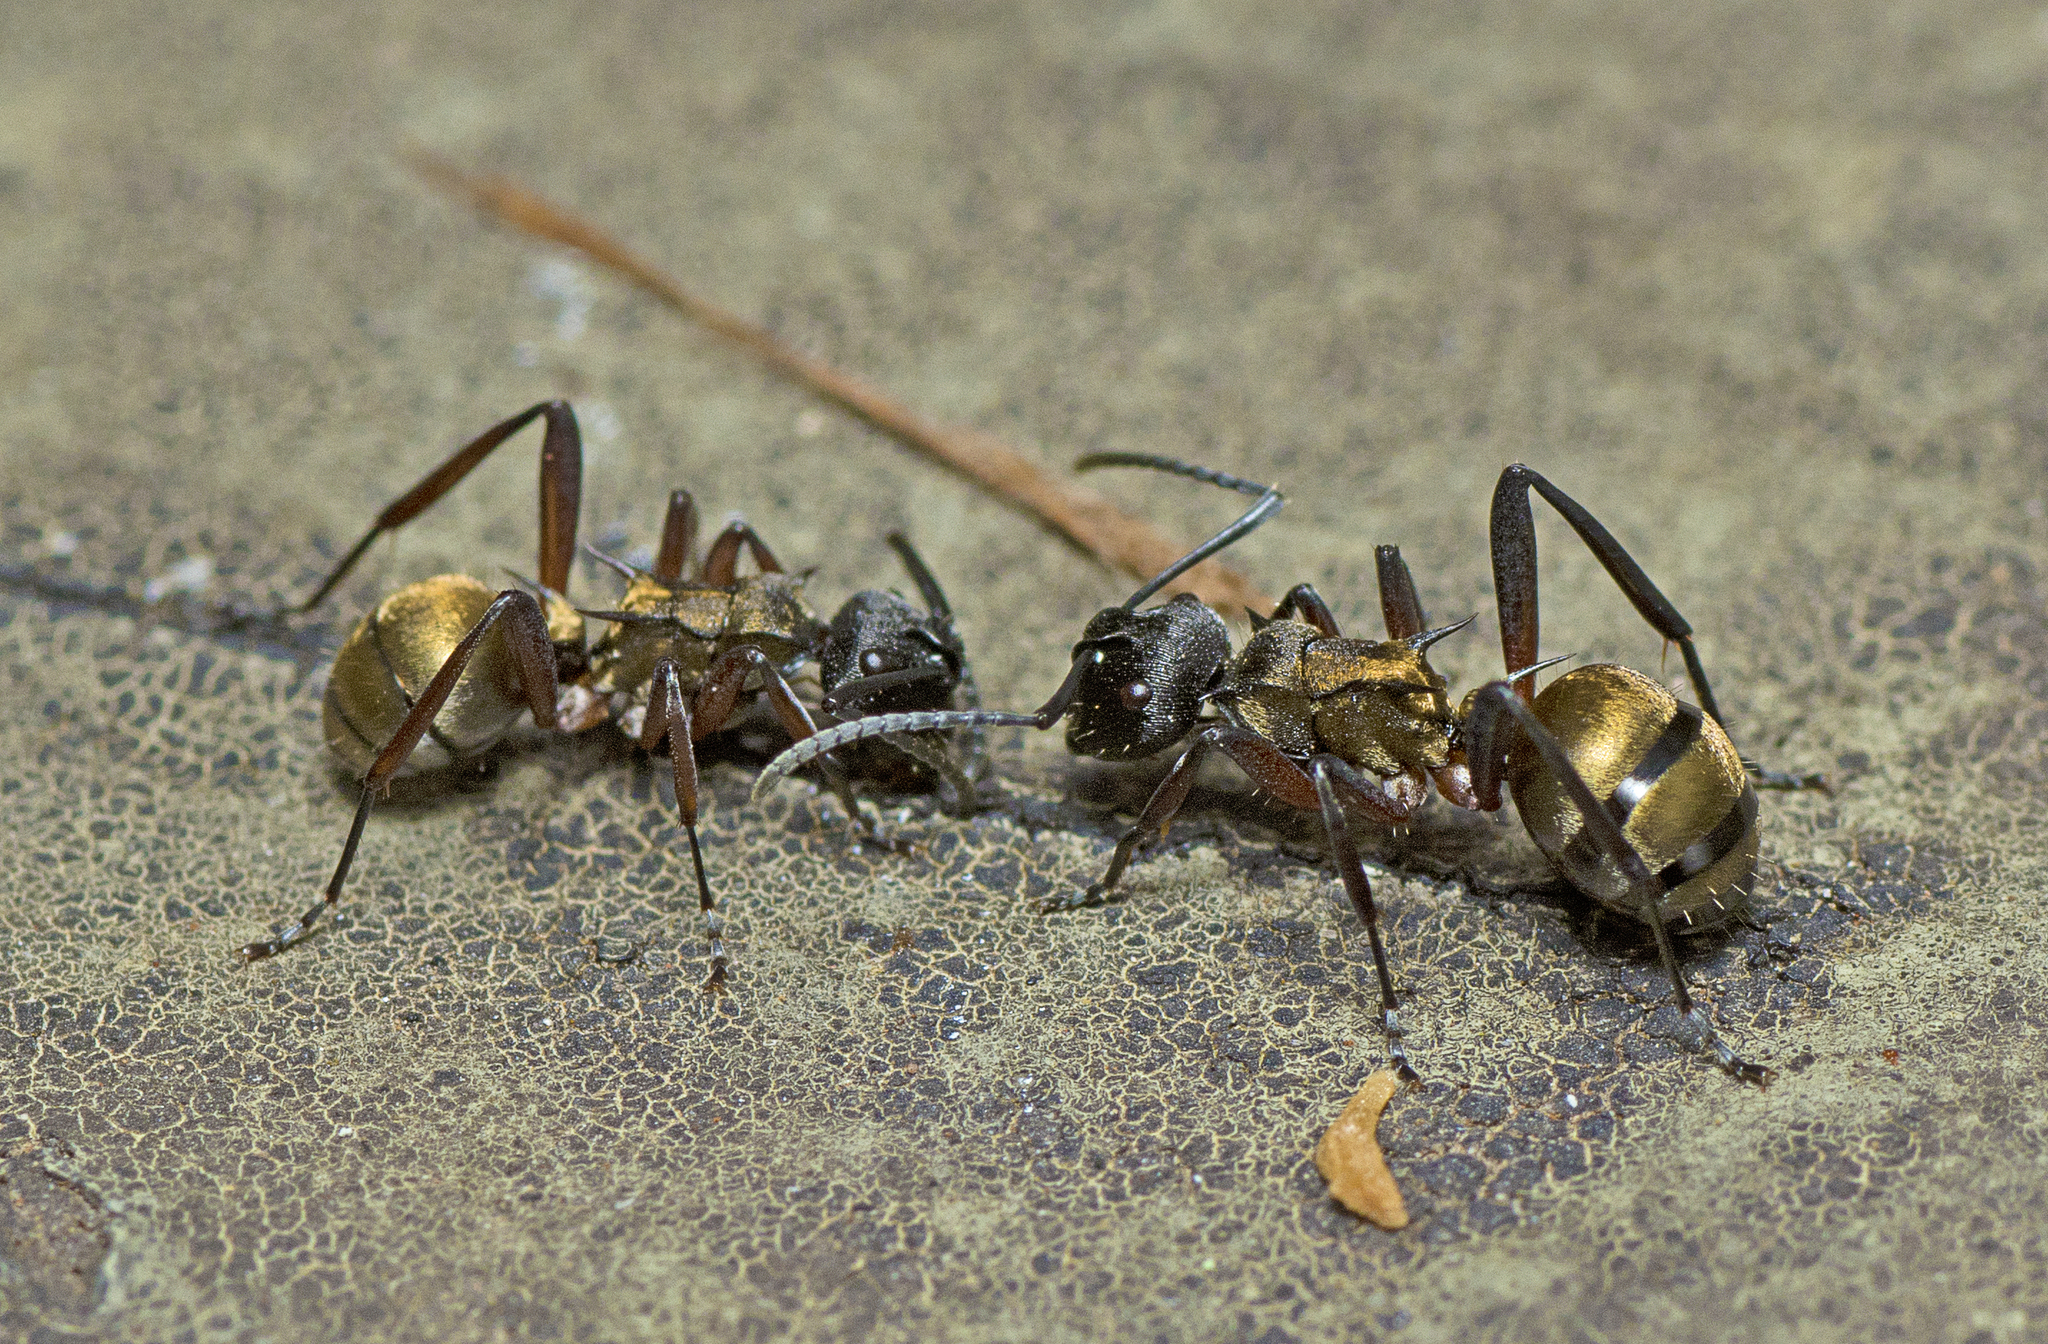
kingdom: Animalia
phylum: Arthropoda
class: Insecta
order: Hymenoptera
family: Formicidae
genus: Polyrhachis
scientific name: Polyrhachis rufifemur
